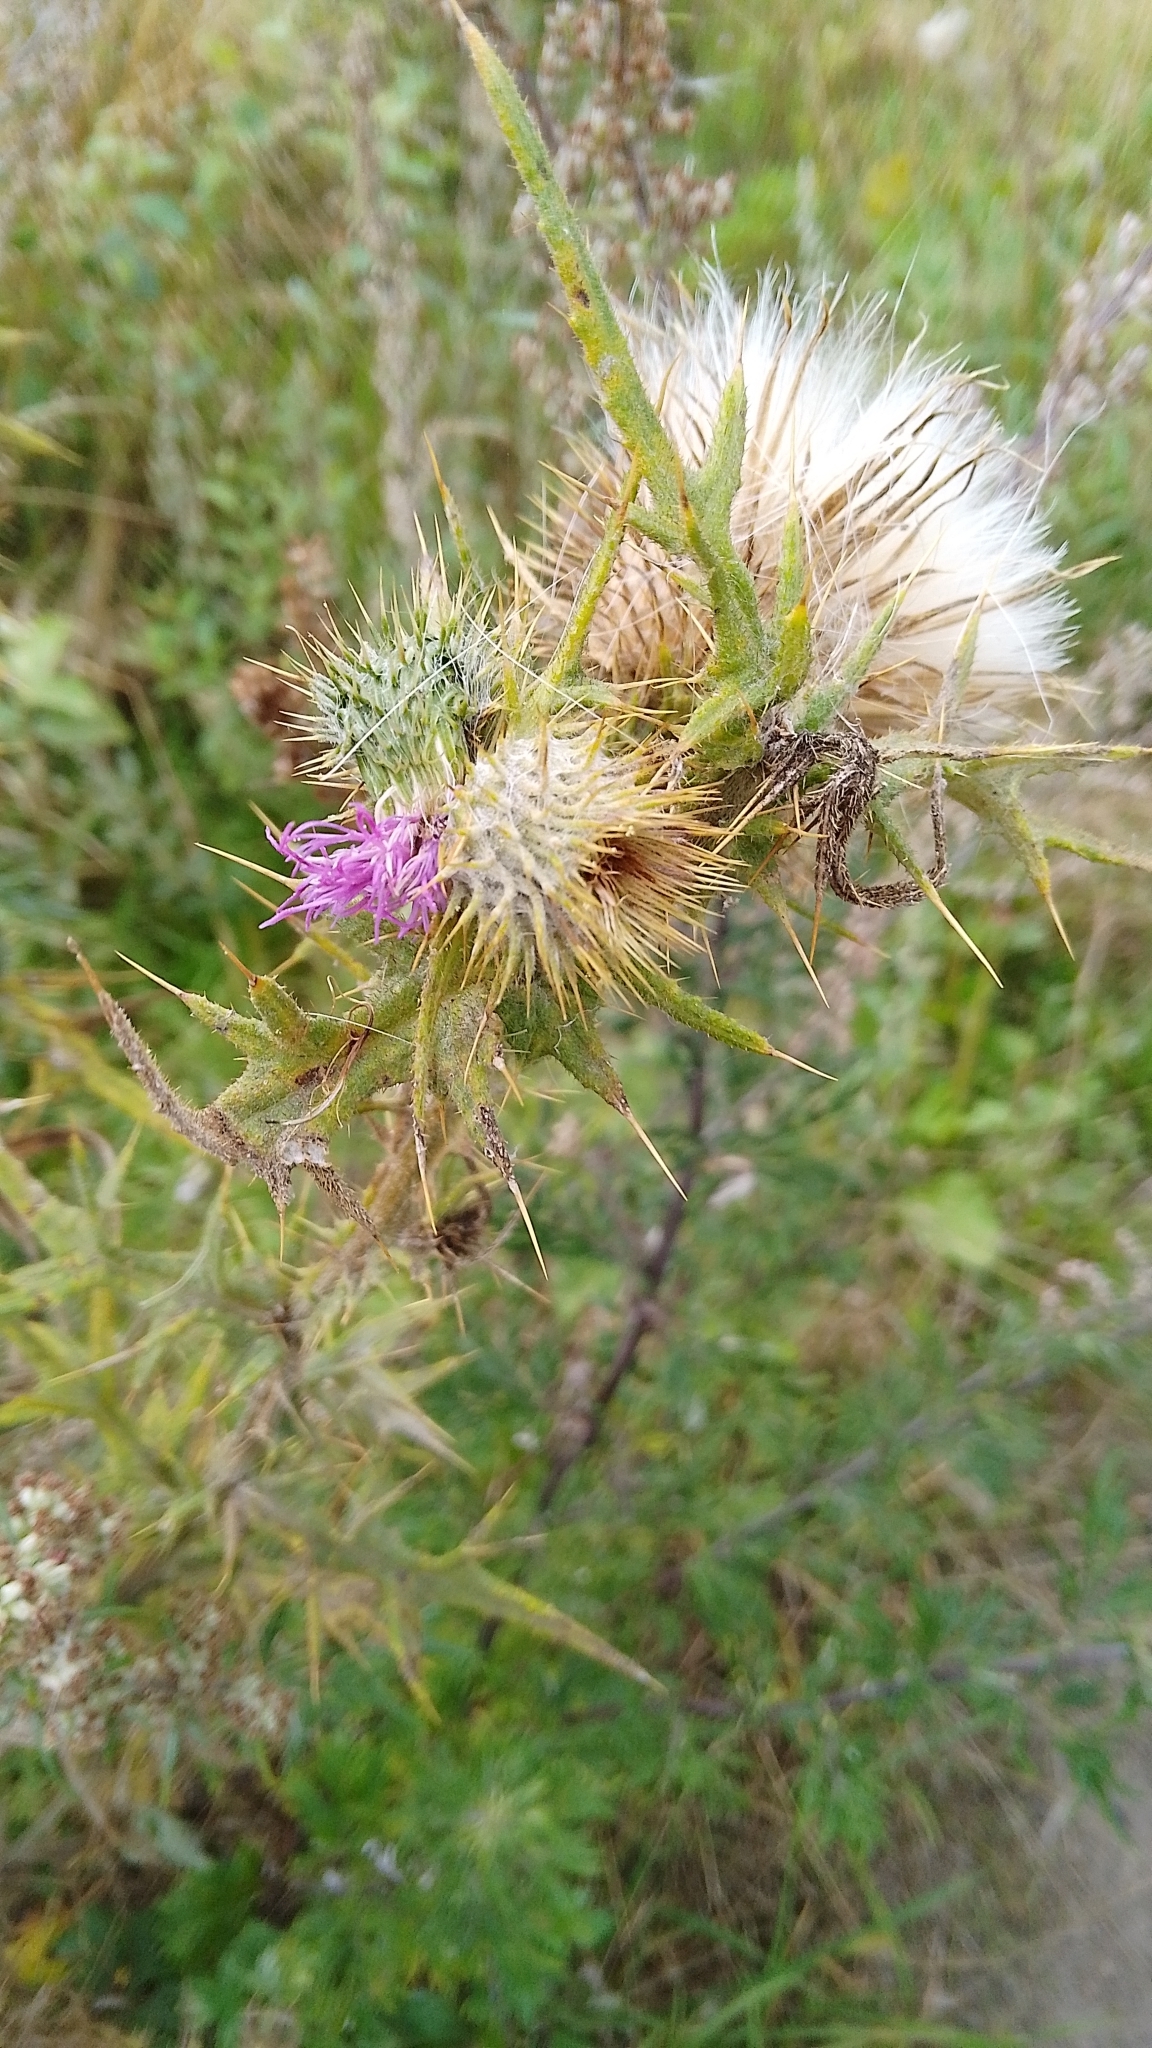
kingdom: Plantae
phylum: Tracheophyta
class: Magnoliopsida
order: Asterales
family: Asteraceae
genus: Cirsium
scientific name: Cirsium vulgare
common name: Bull thistle
